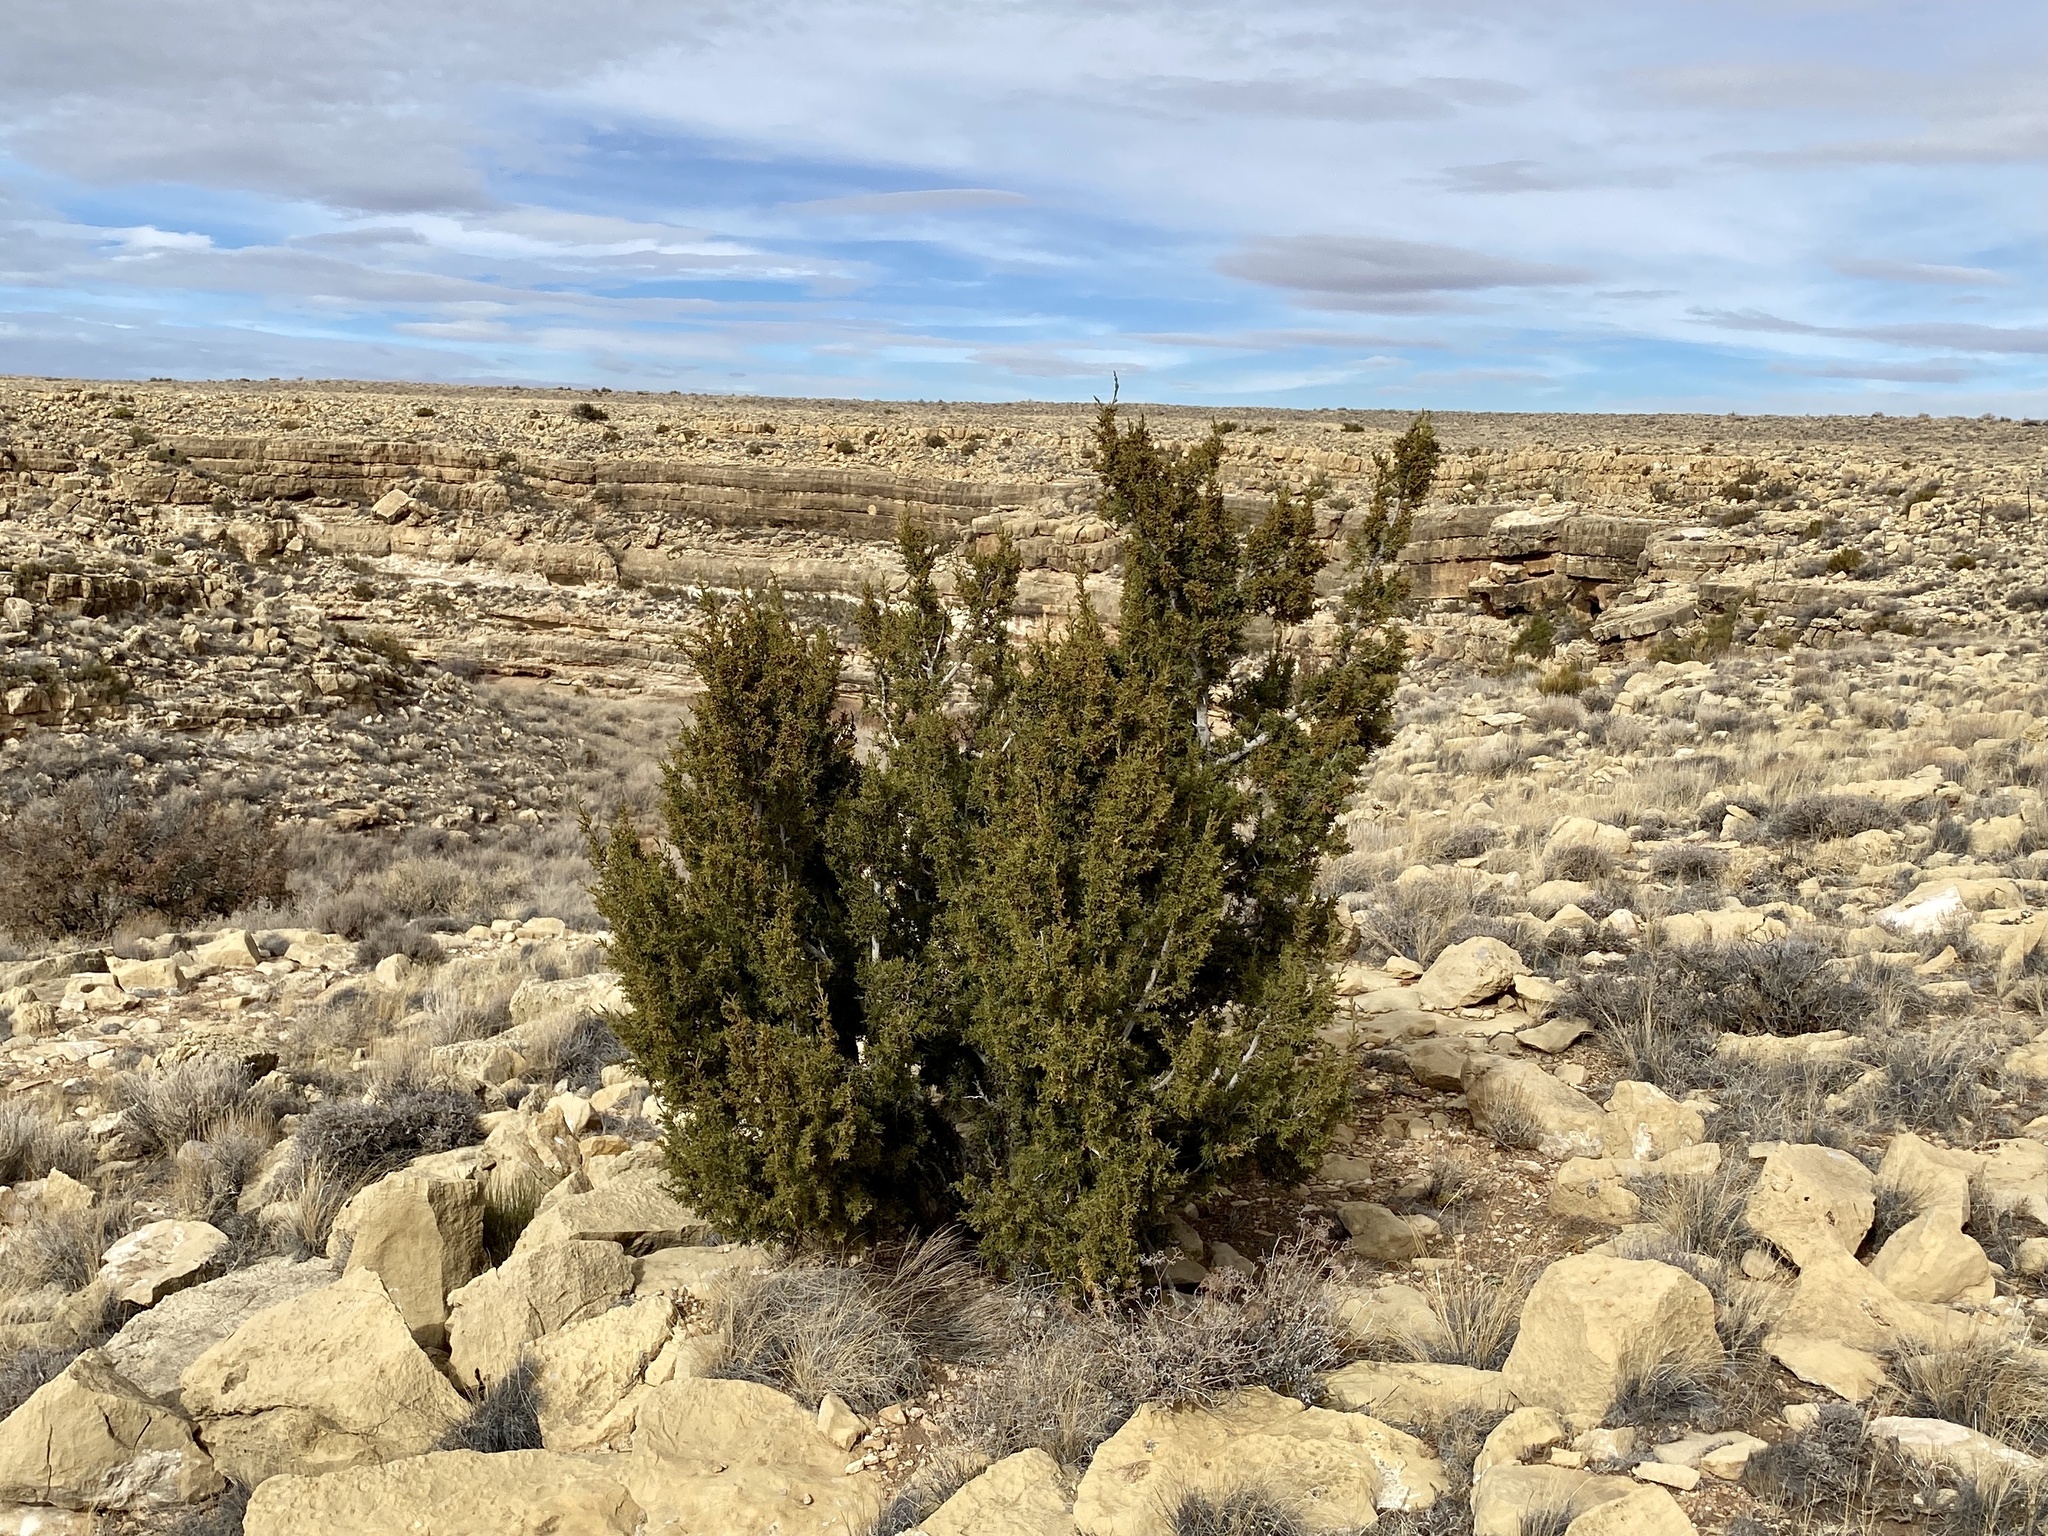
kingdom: Plantae
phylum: Tracheophyta
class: Pinopsida
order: Pinales
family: Cupressaceae
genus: Juniperus
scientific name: Juniperus monosperma
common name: One-seed juniper
